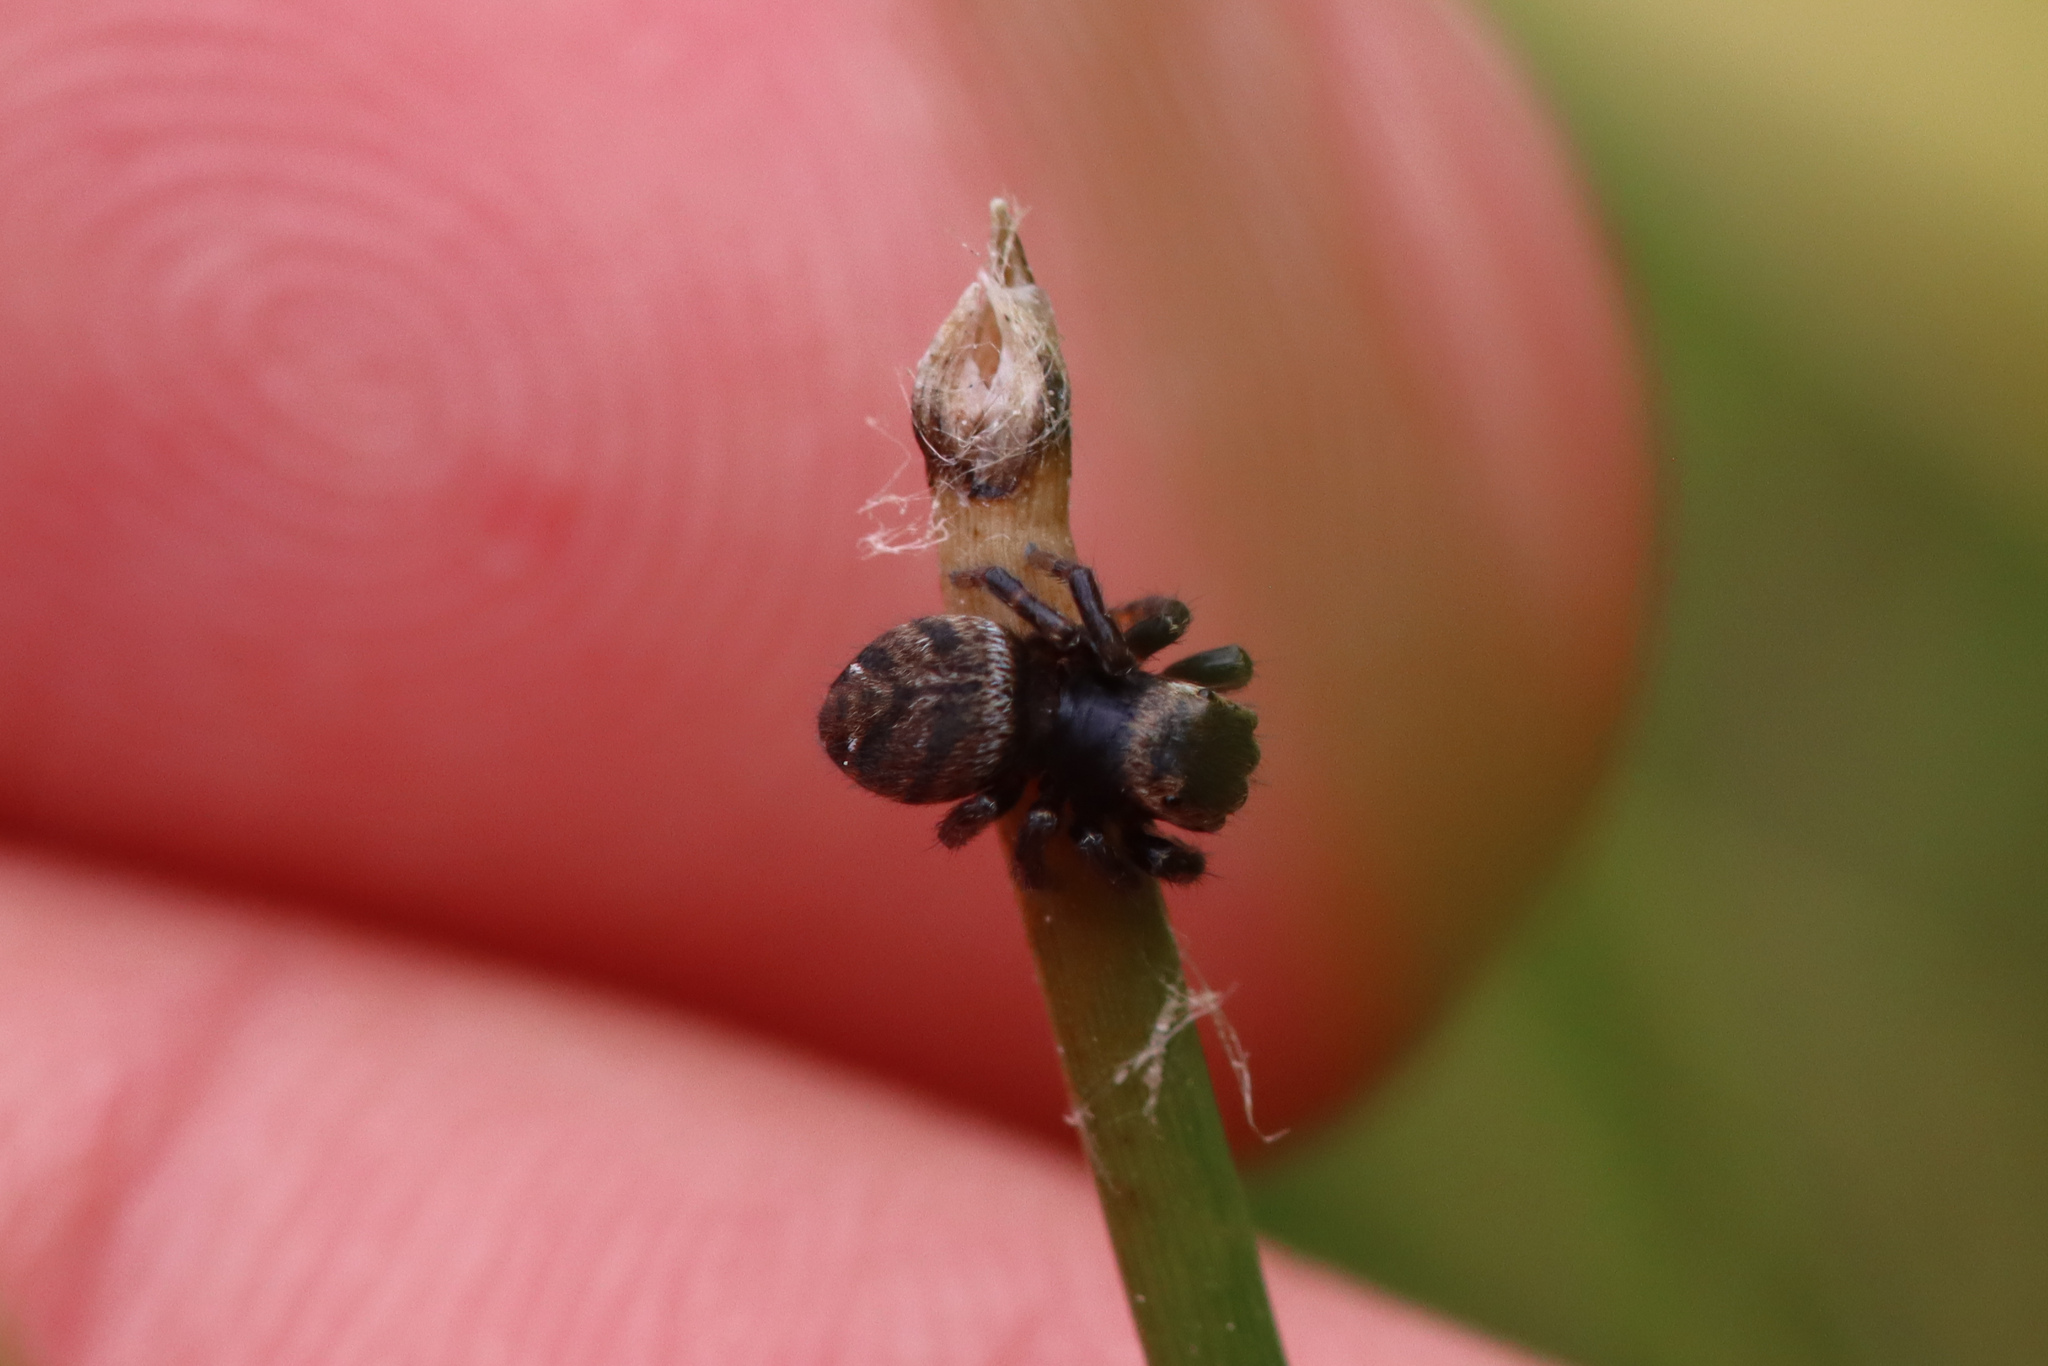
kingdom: Animalia
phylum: Arthropoda
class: Arachnida
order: Araneae
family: Salticidae
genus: Evarcha
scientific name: Evarcha arcuata
